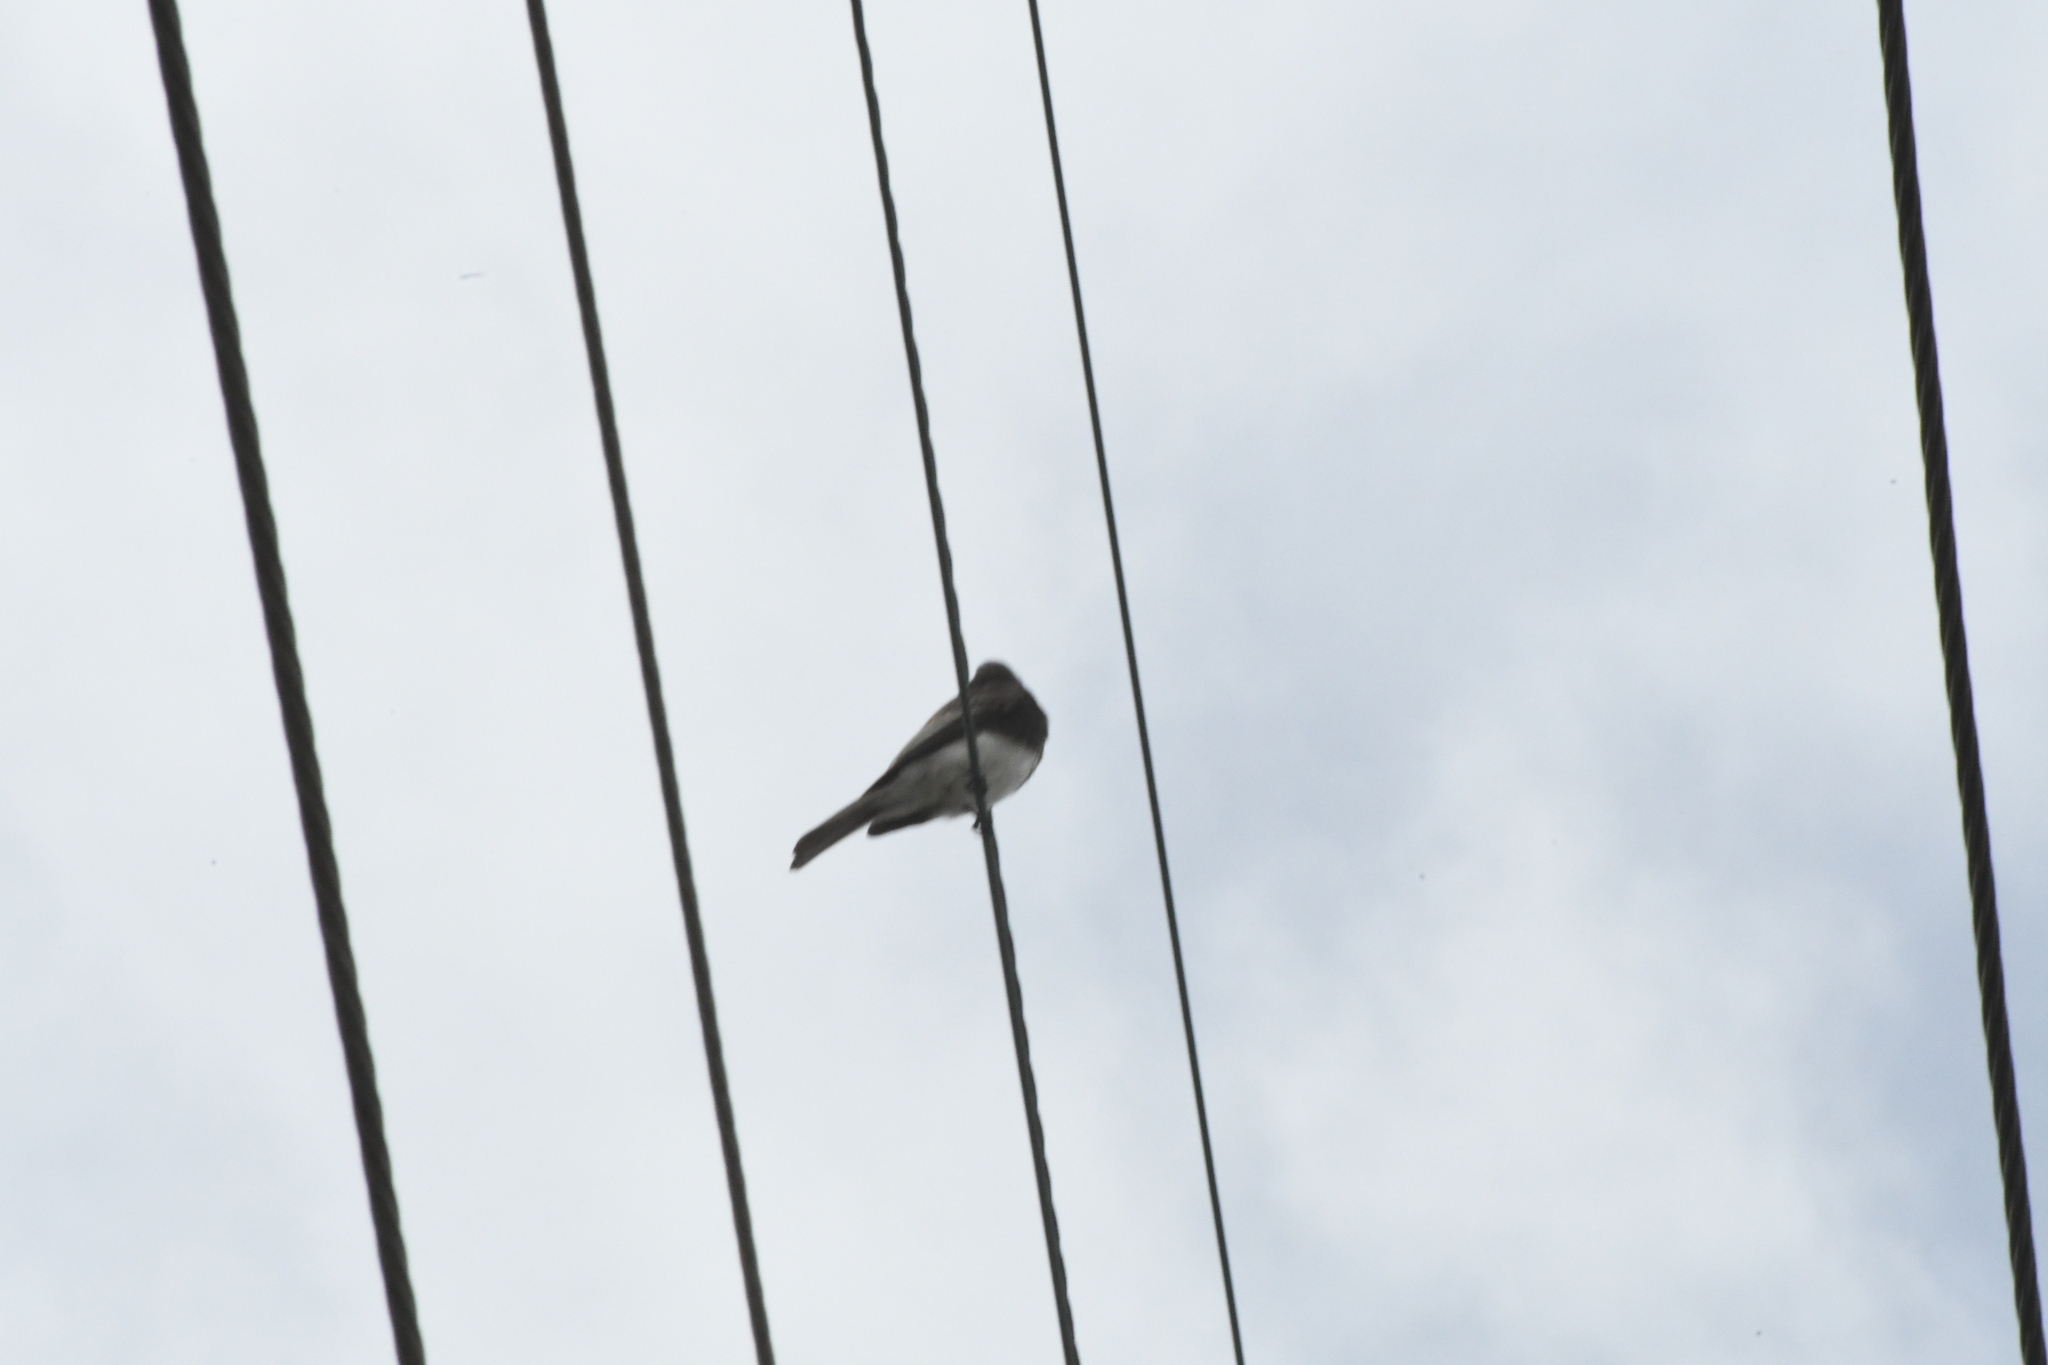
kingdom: Animalia
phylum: Chordata
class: Aves
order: Passeriformes
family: Tyrannidae
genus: Sayornis
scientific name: Sayornis nigricans
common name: Black phoebe
